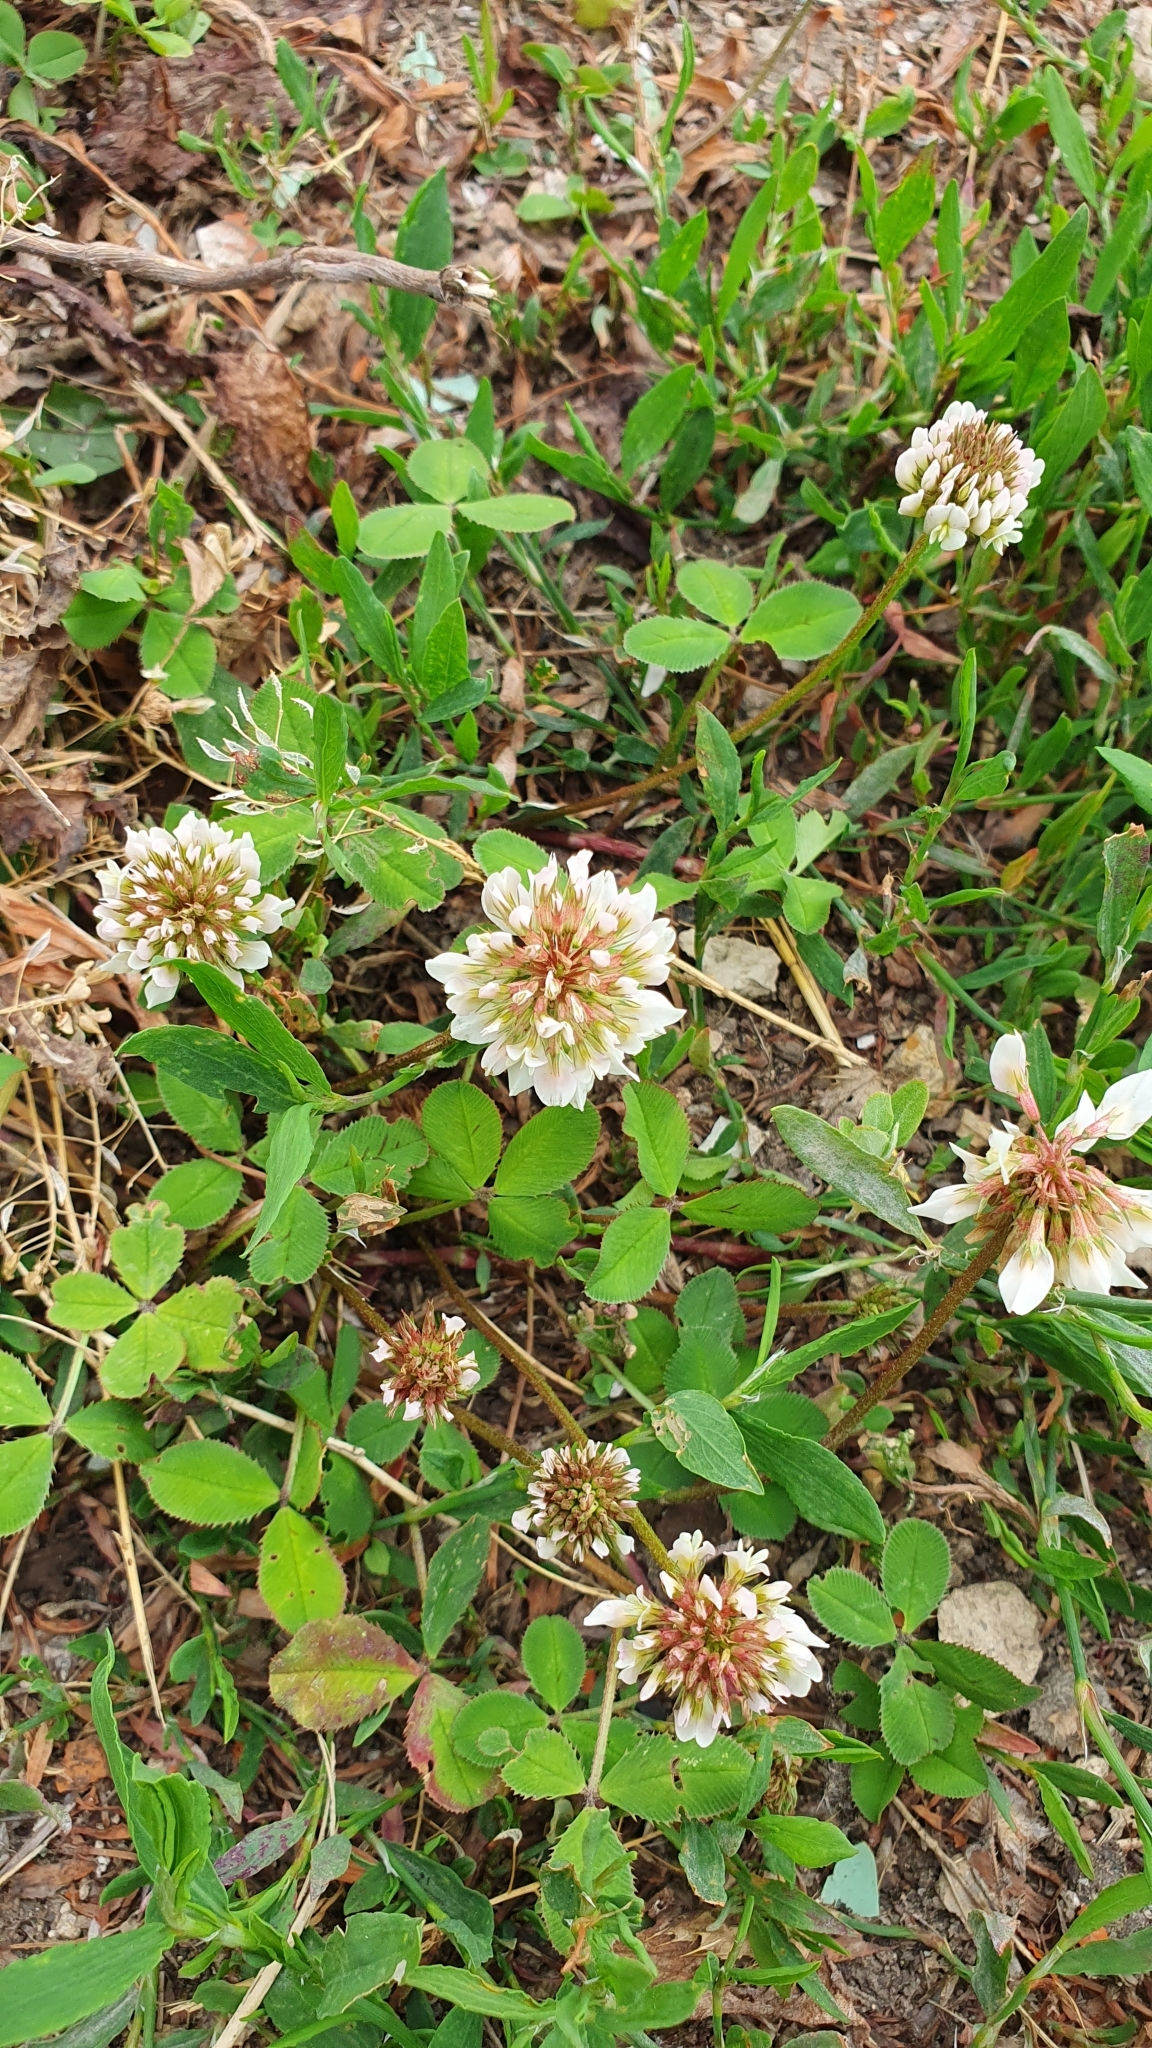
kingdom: Plantae
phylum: Tracheophyta
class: Magnoliopsida
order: Fabales
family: Fabaceae
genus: Trifolium
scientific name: Trifolium repens
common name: White clover
